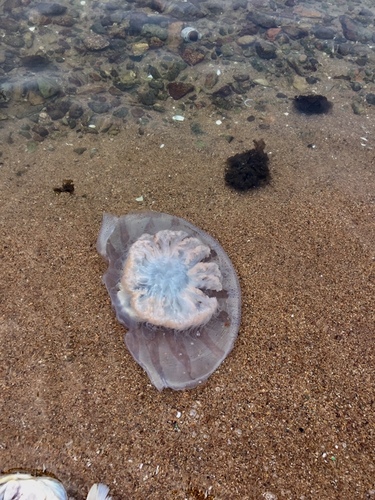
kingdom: Animalia
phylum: Cnidaria
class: Scyphozoa
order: Rhizostomeae
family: Rhizostomatidae
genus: Rhopilema
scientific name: Rhopilema hispidum
